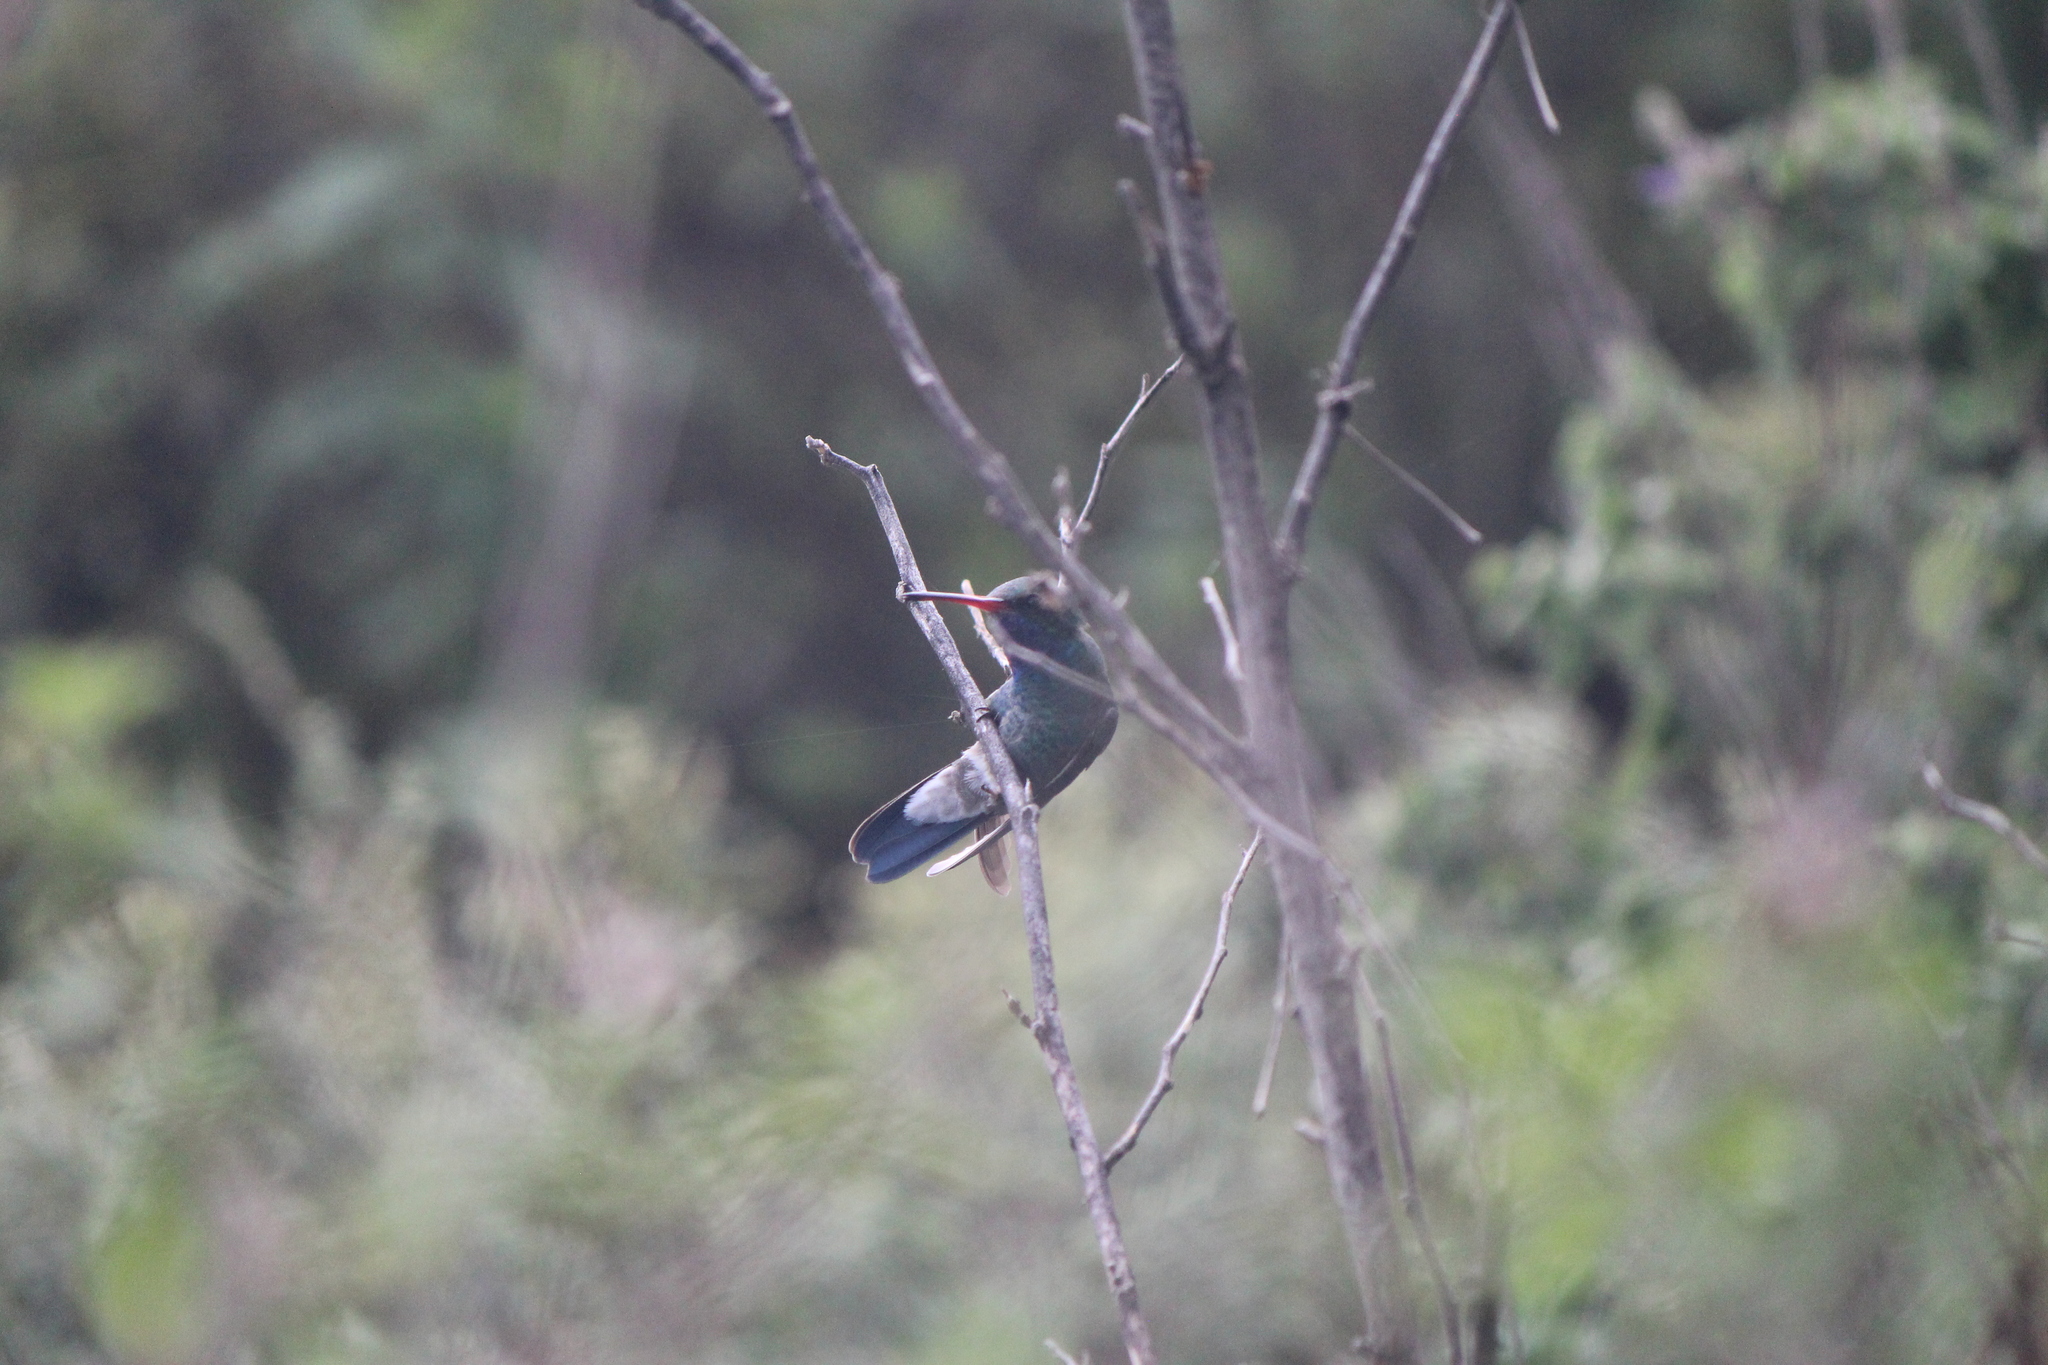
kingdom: Animalia
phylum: Chordata
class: Aves
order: Apodiformes
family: Trochilidae
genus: Cynanthus
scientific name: Cynanthus latirostris
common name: Broad-billed hummingbird
